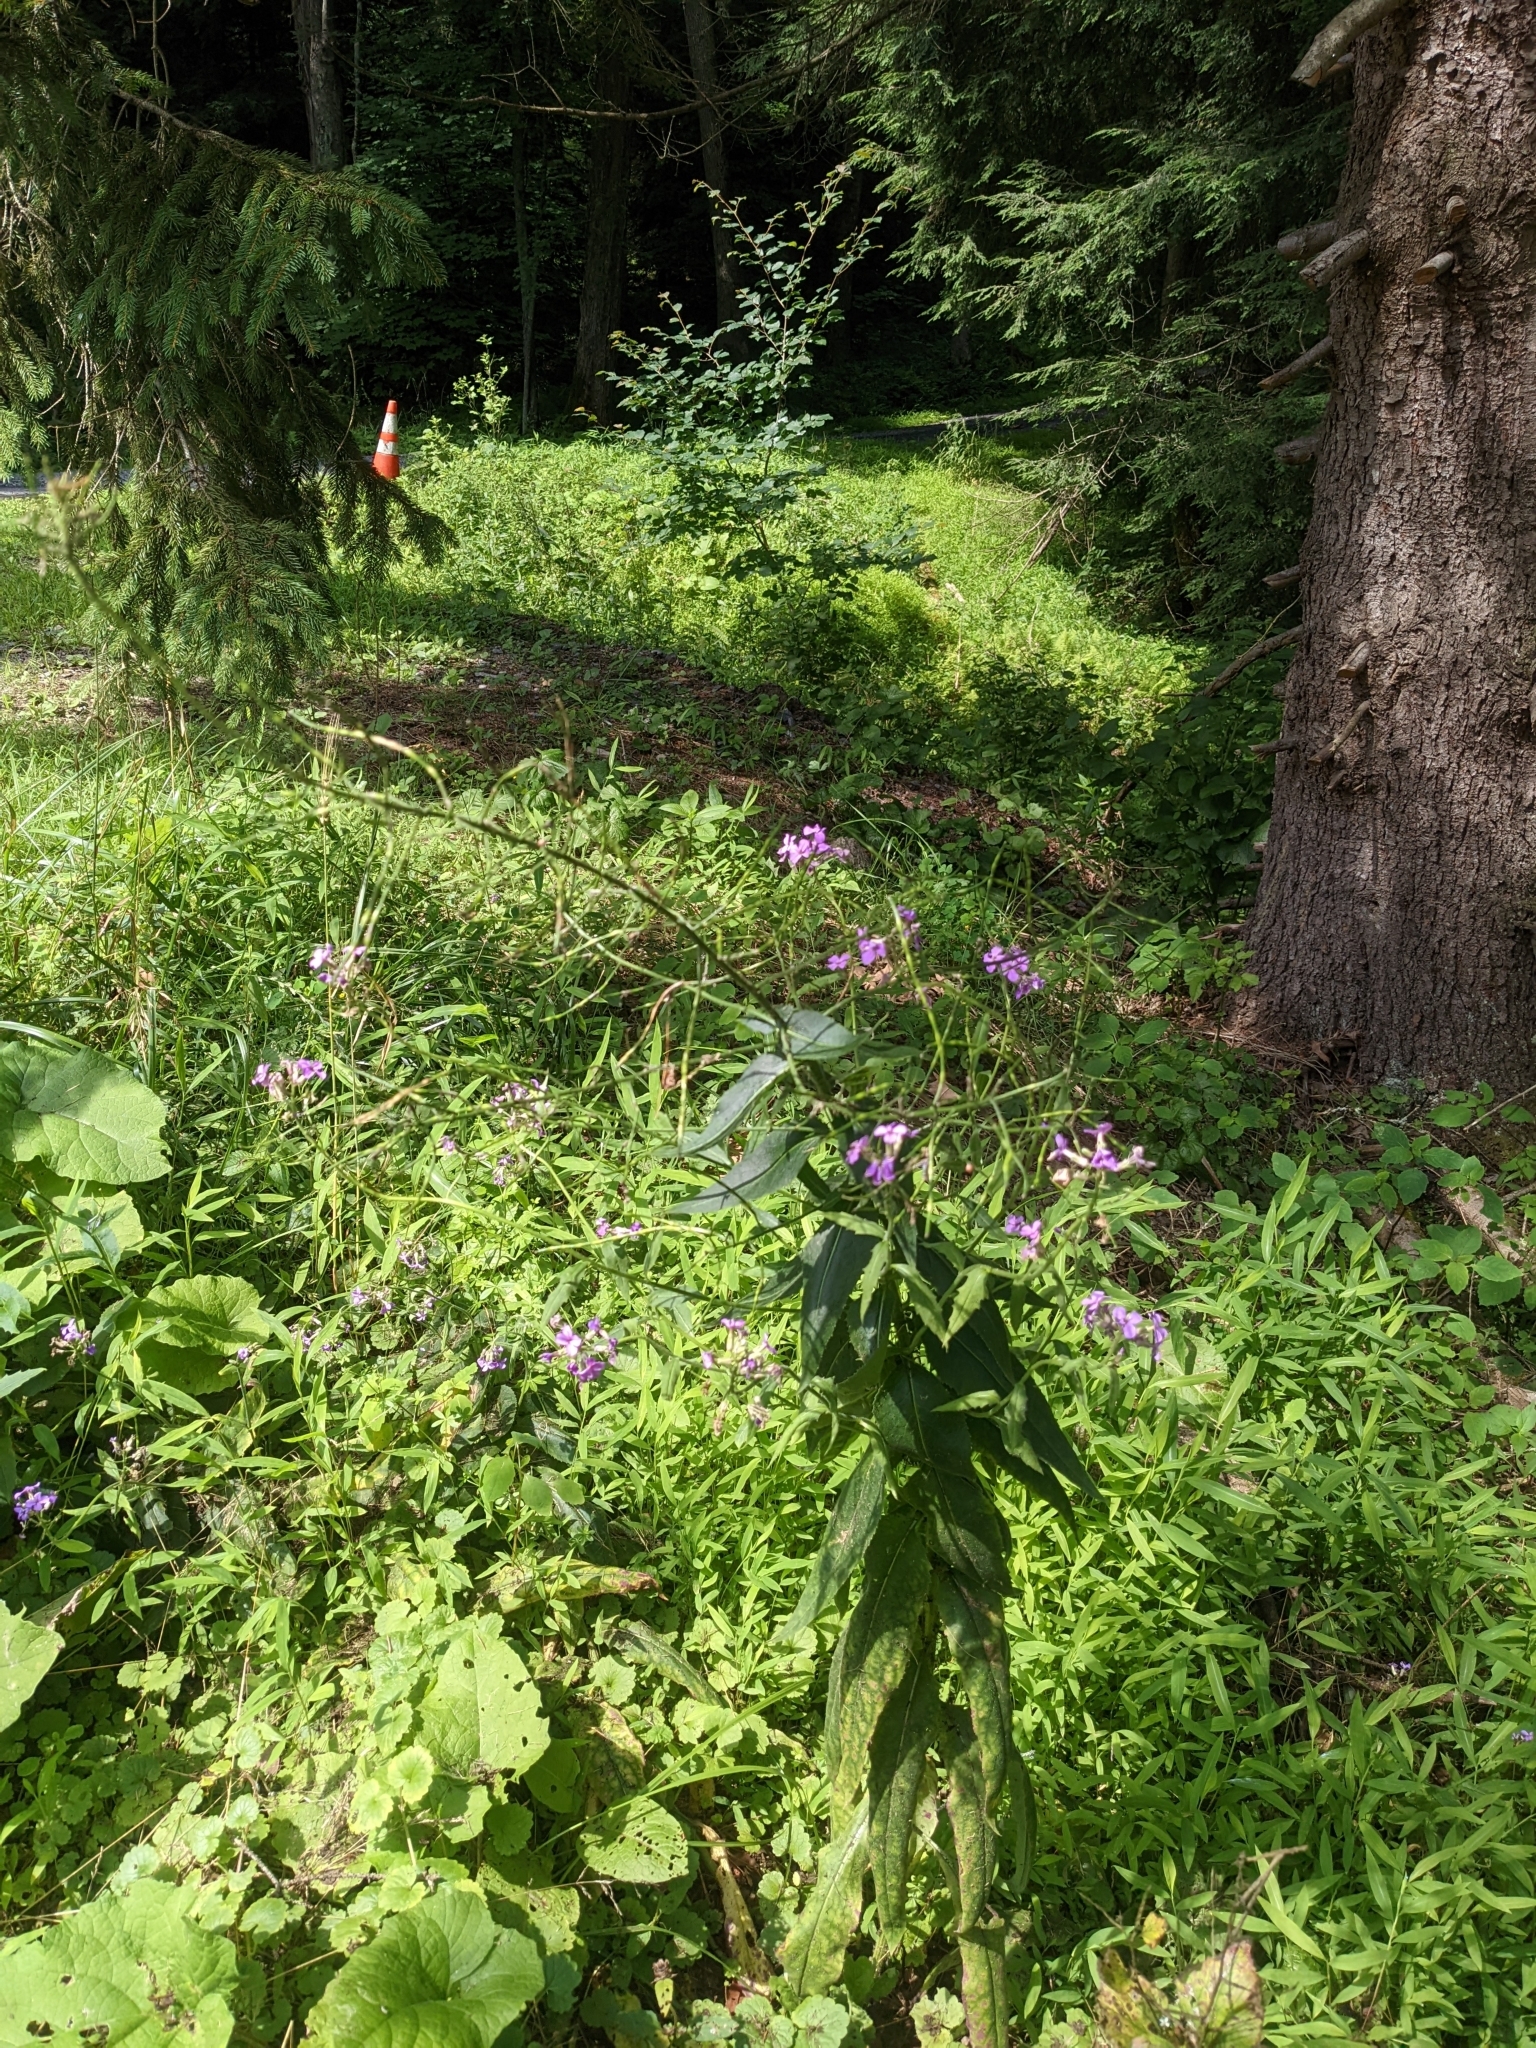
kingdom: Plantae
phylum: Tracheophyta
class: Magnoliopsida
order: Brassicales
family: Brassicaceae
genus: Hesperis
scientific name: Hesperis matronalis
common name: Dame's-violet
